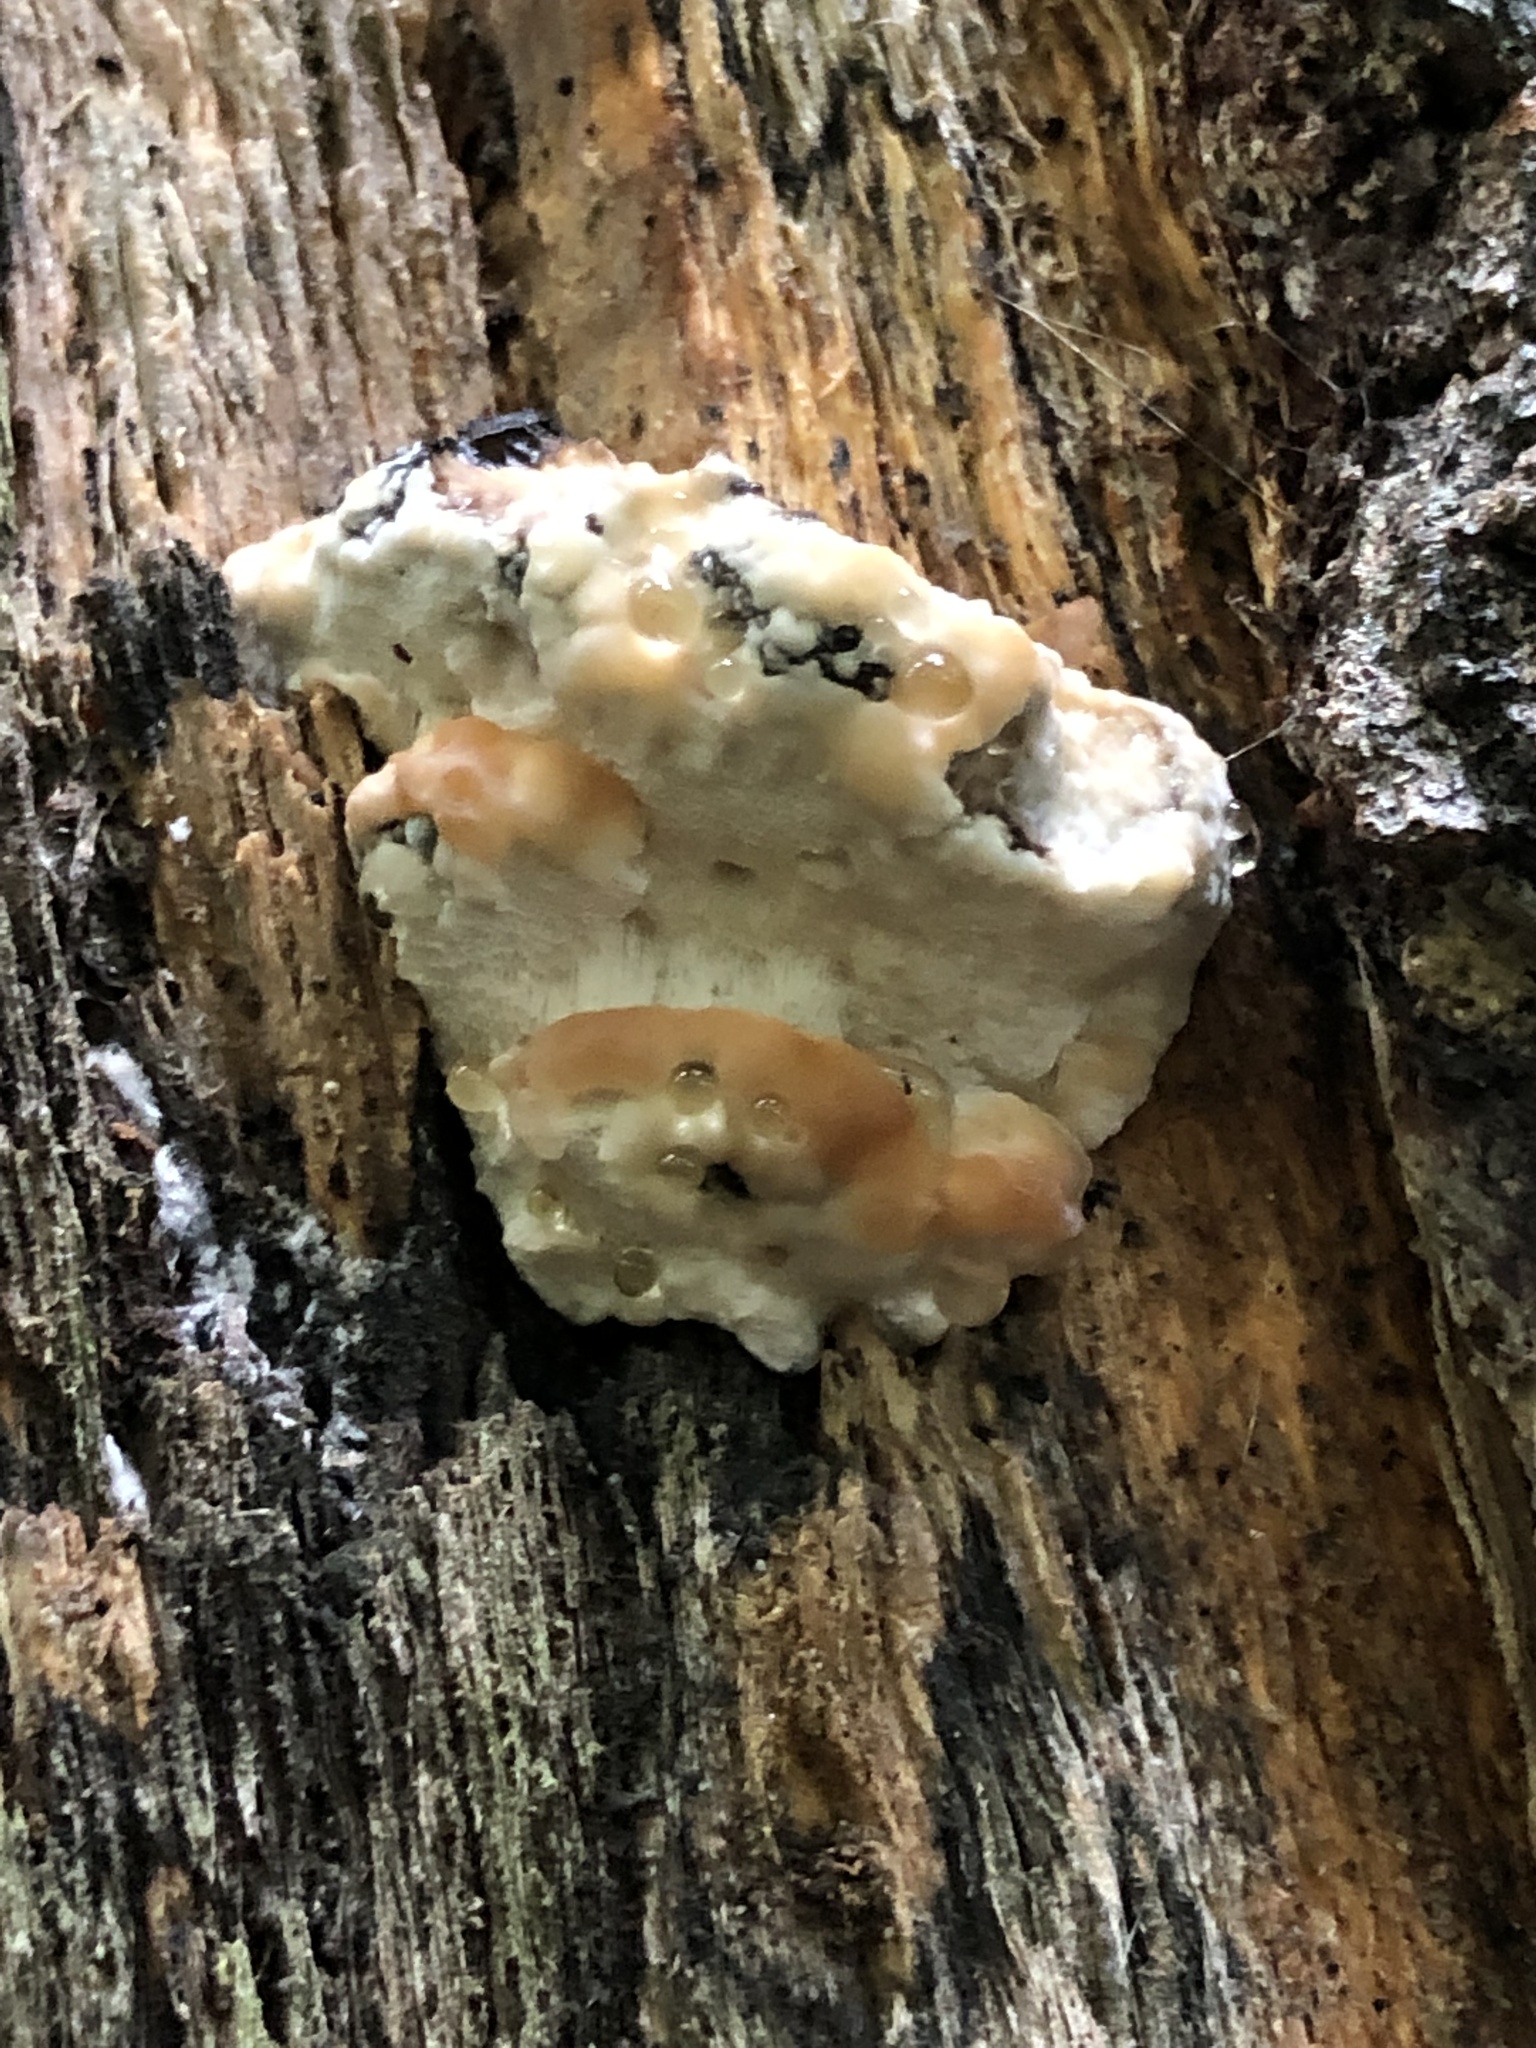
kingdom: Fungi
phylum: Basidiomycota
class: Agaricomycetes
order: Polyporales
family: Fomitopsidaceae
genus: Niveoporofomes
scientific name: Niveoporofomes spraguei
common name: Green cheese polypore
